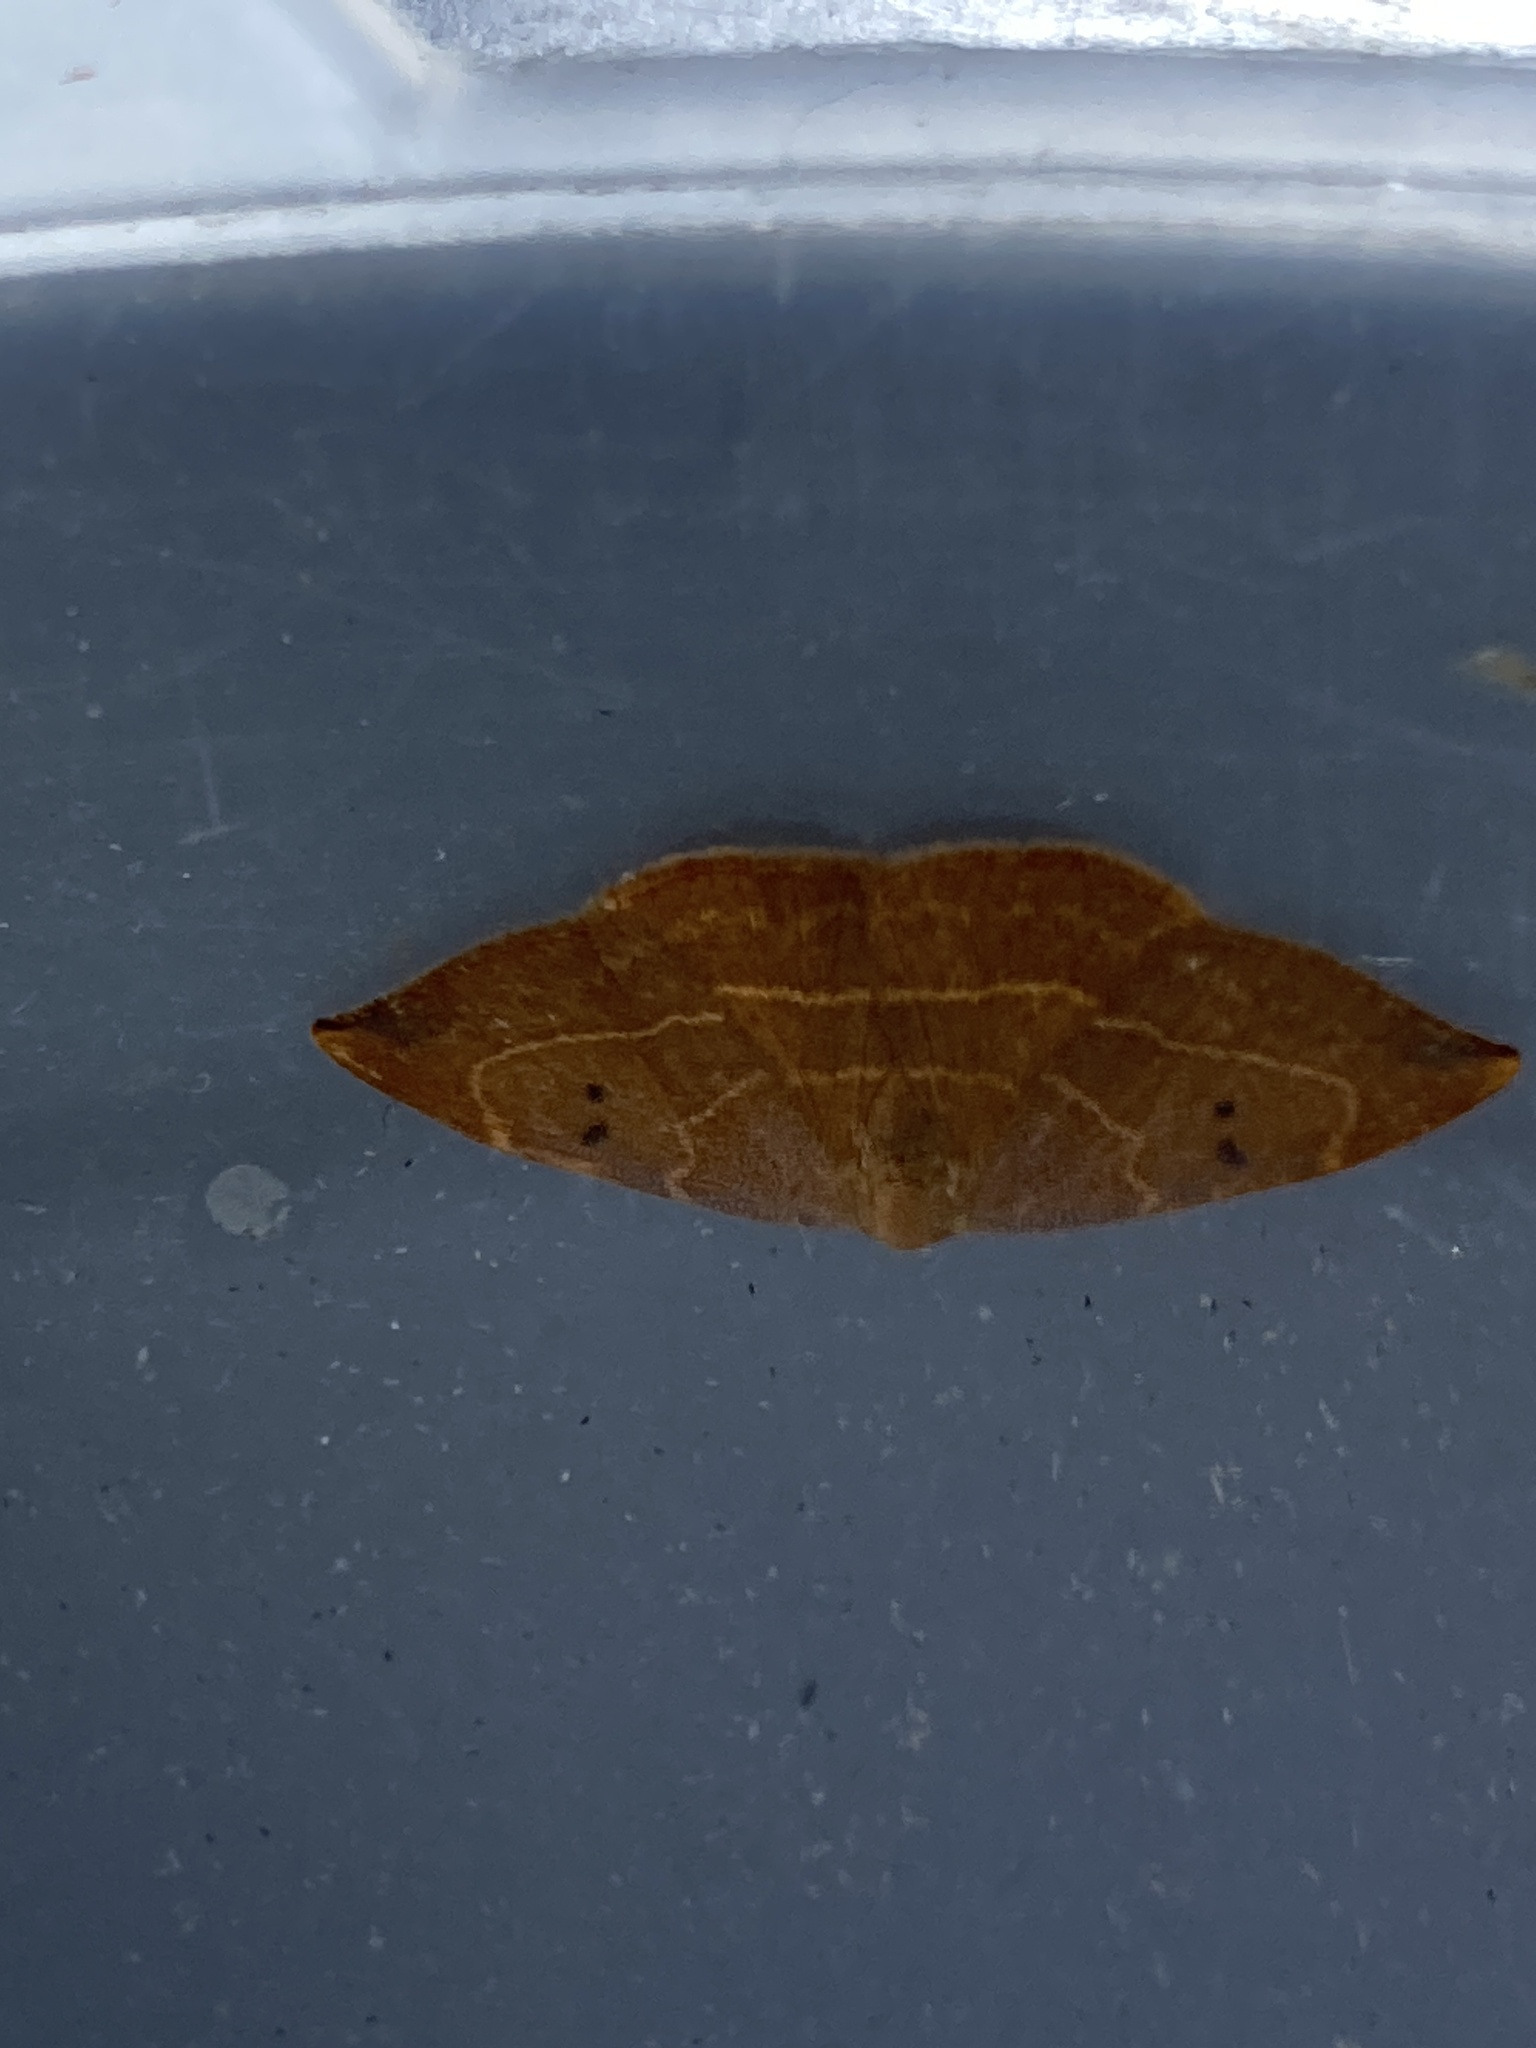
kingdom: Animalia
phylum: Arthropoda
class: Insecta
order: Lepidoptera
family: Drepanidae
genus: Watsonalla
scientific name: Watsonalla binaria
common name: Oak hook-tip
